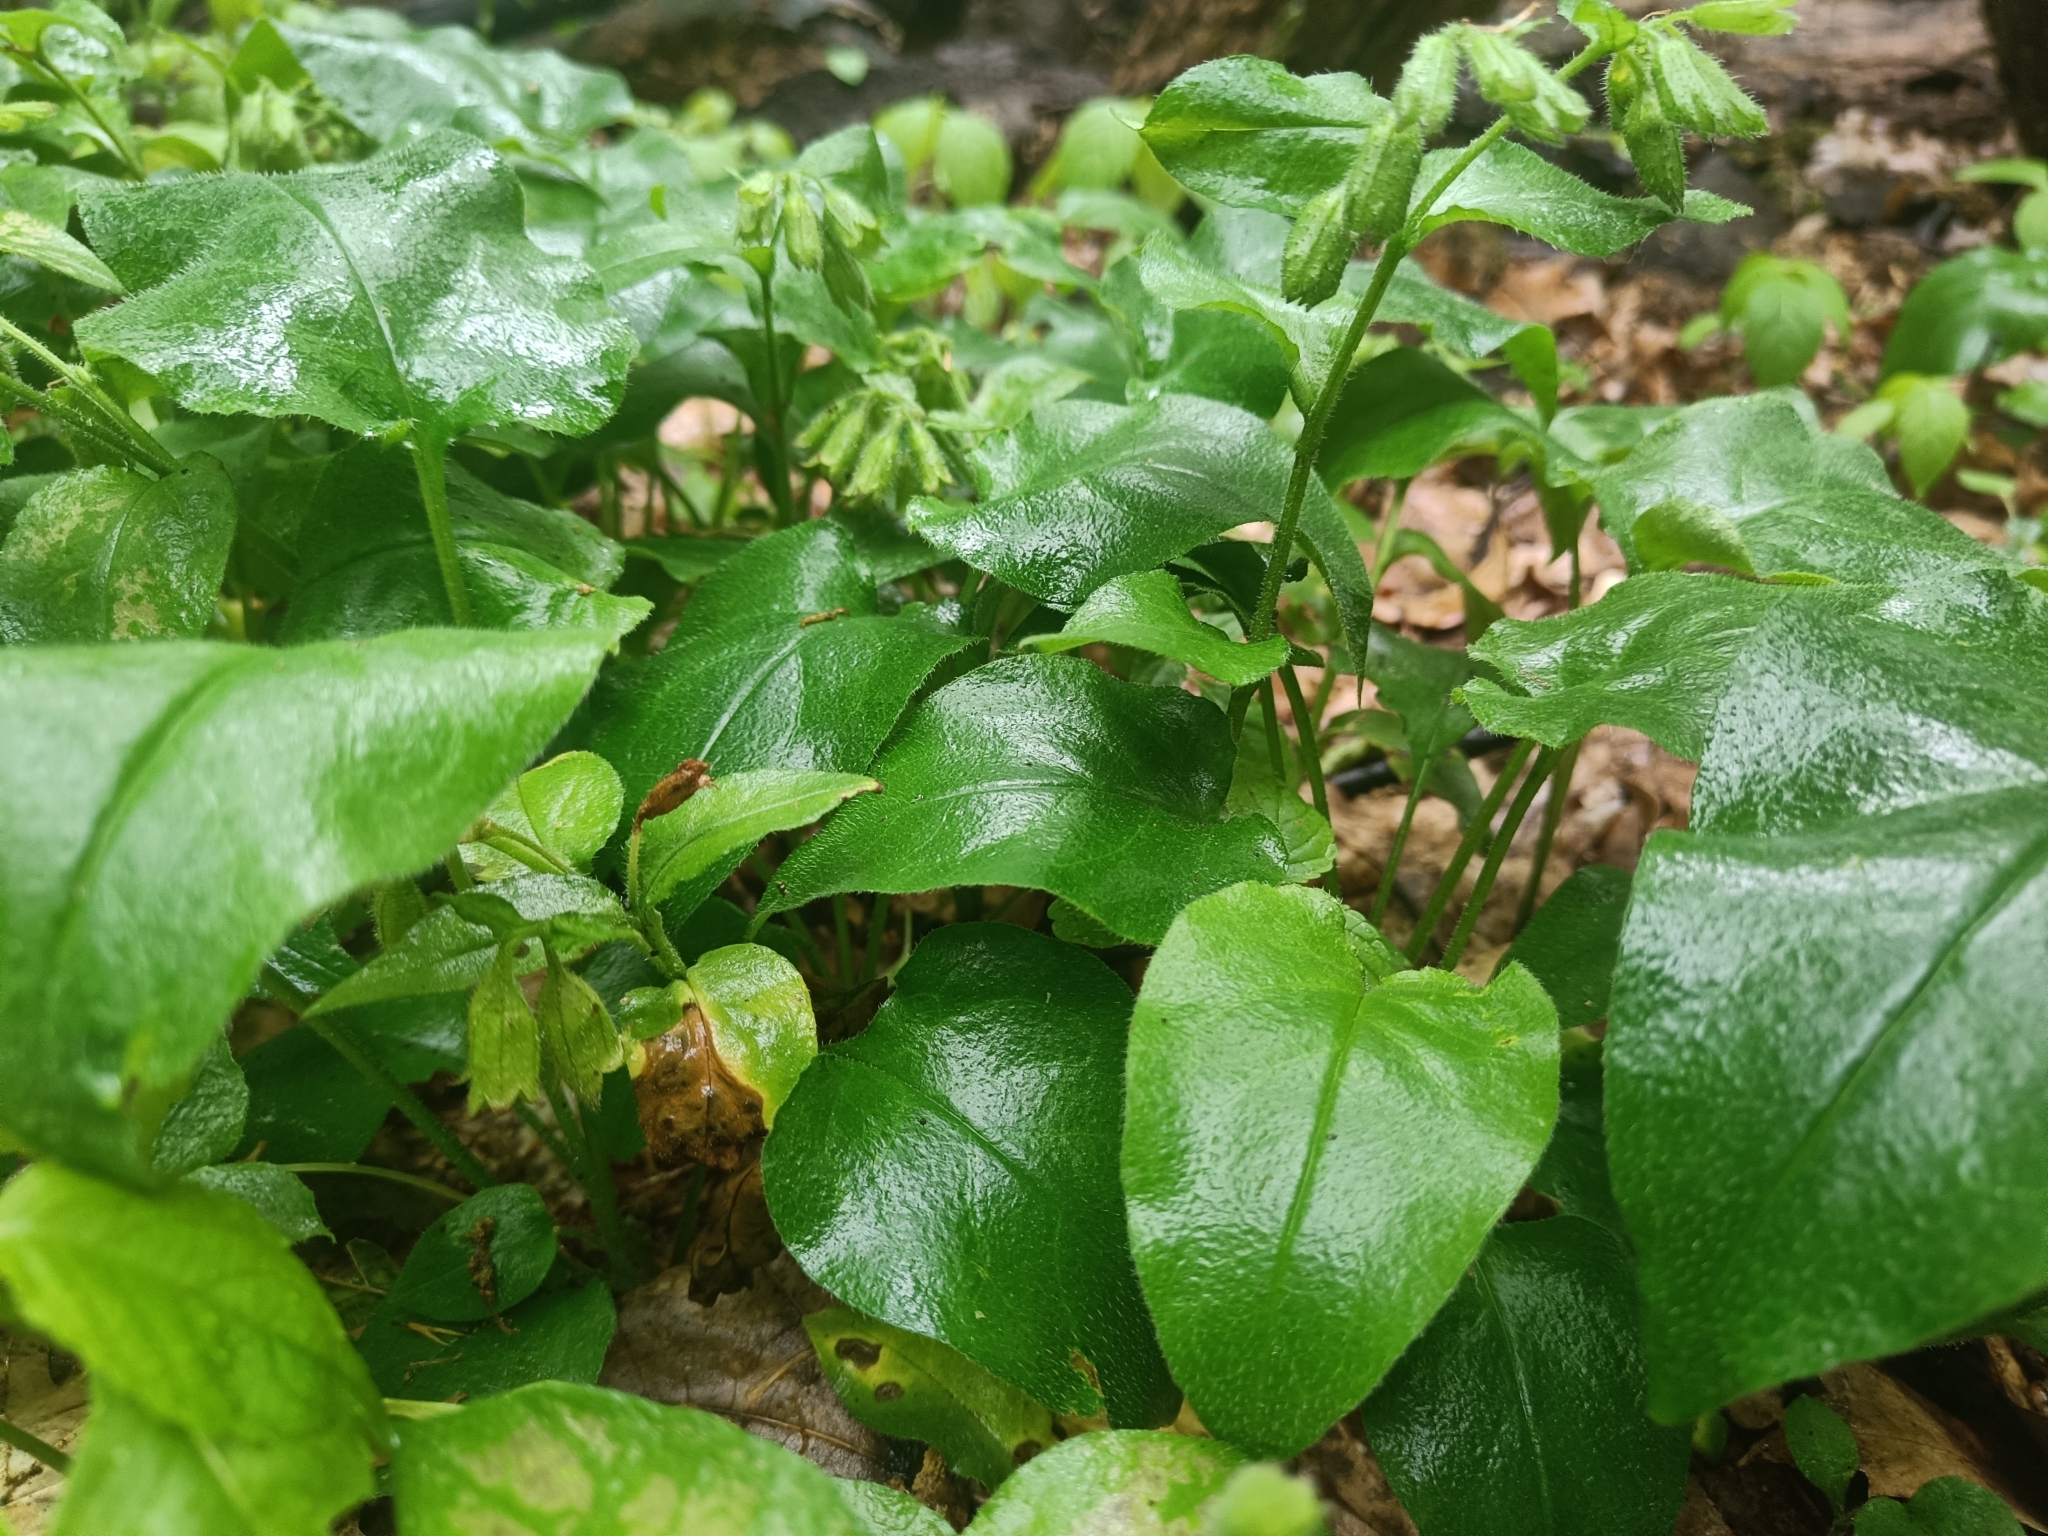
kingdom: Plantae
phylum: Tracheophyta
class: Magnoliopsida
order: Boraginales
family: Boraginaceae
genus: Pulmonaria
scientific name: Pulmonaria obscura
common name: Suffolk lungwort
